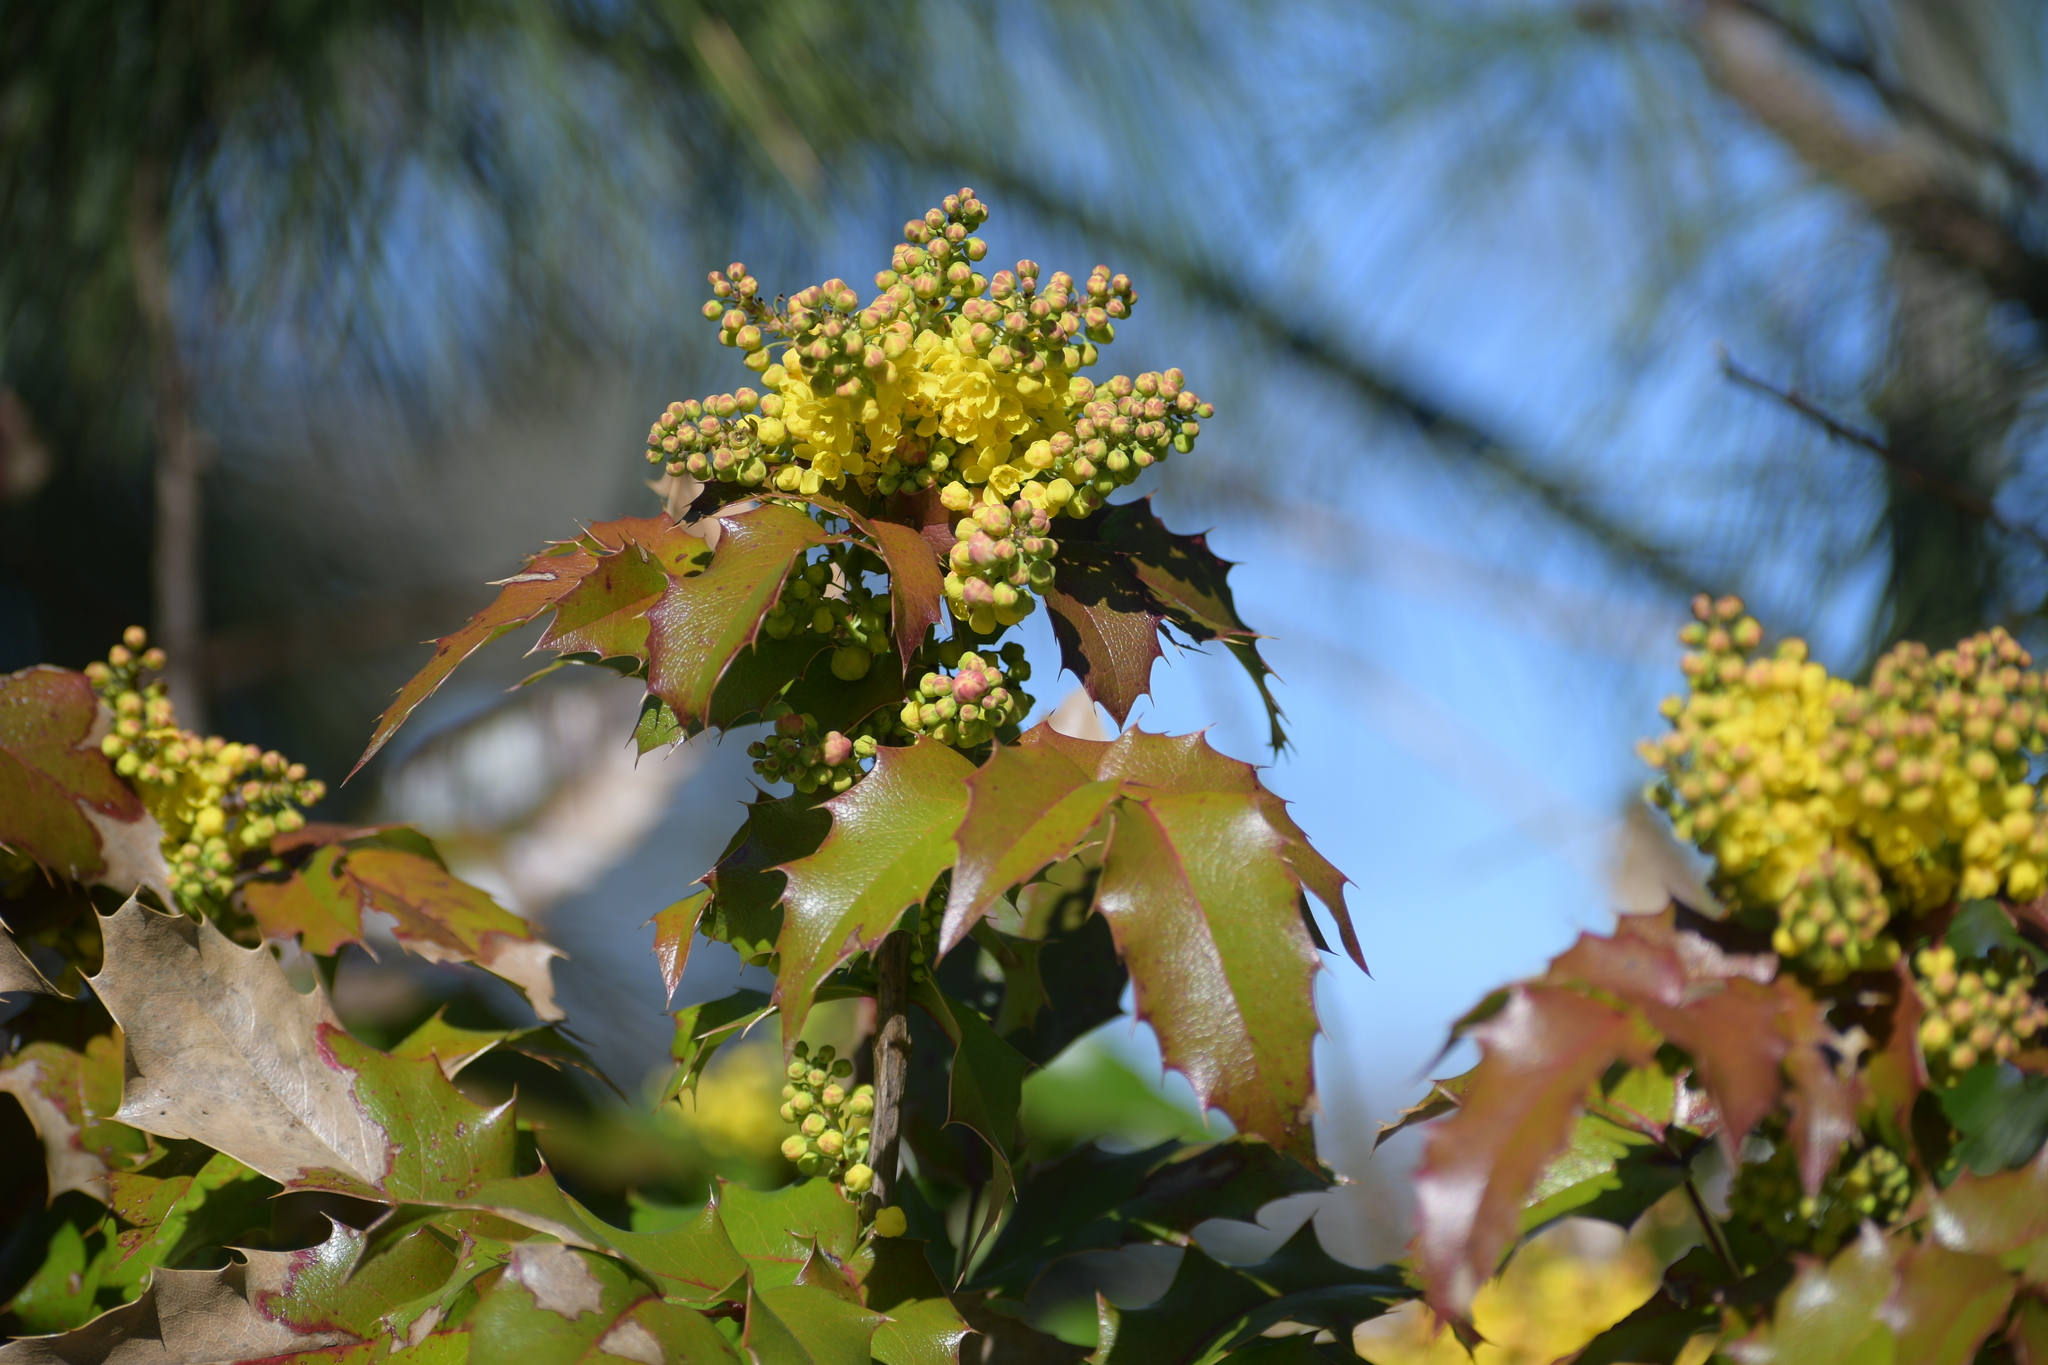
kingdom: Plantae
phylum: Tracheophyta
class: Magnoliopsida
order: Ranunculales
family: Berberidaceae
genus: Mahonia
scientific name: Mahonia aquifolium
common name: Oregon-grape
